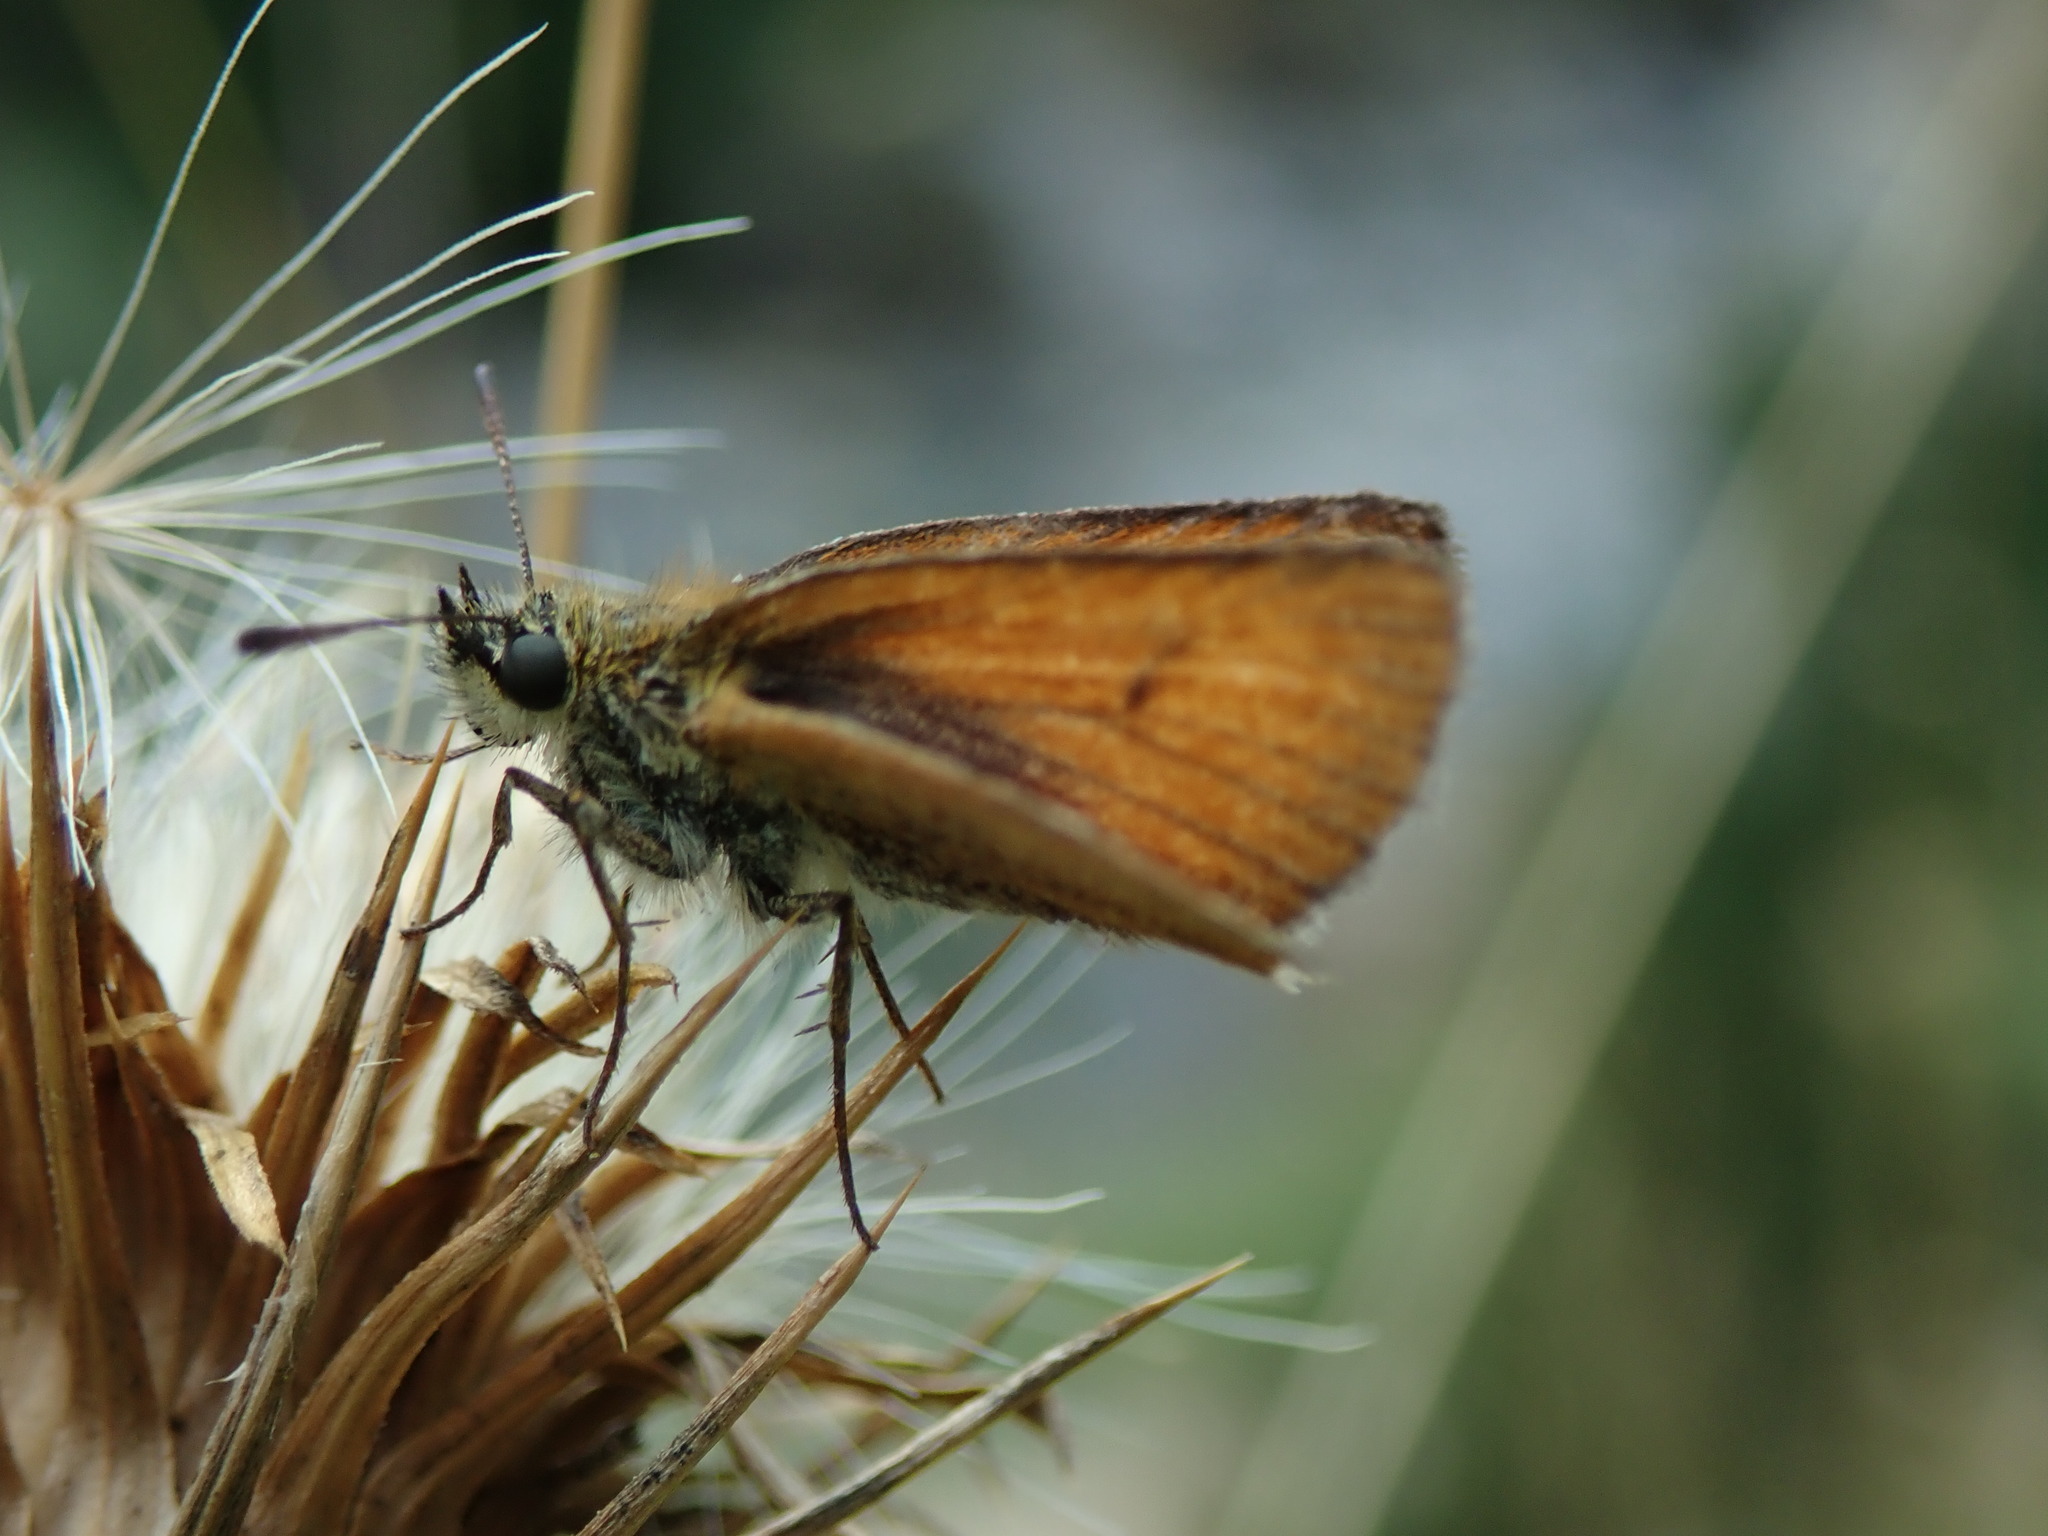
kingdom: Animalia
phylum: Arthropoda
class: Insecta
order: Lepidoptera
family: Hesperiidae
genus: Thymelicus
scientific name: Thymelicus lineola
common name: Essex skipper
